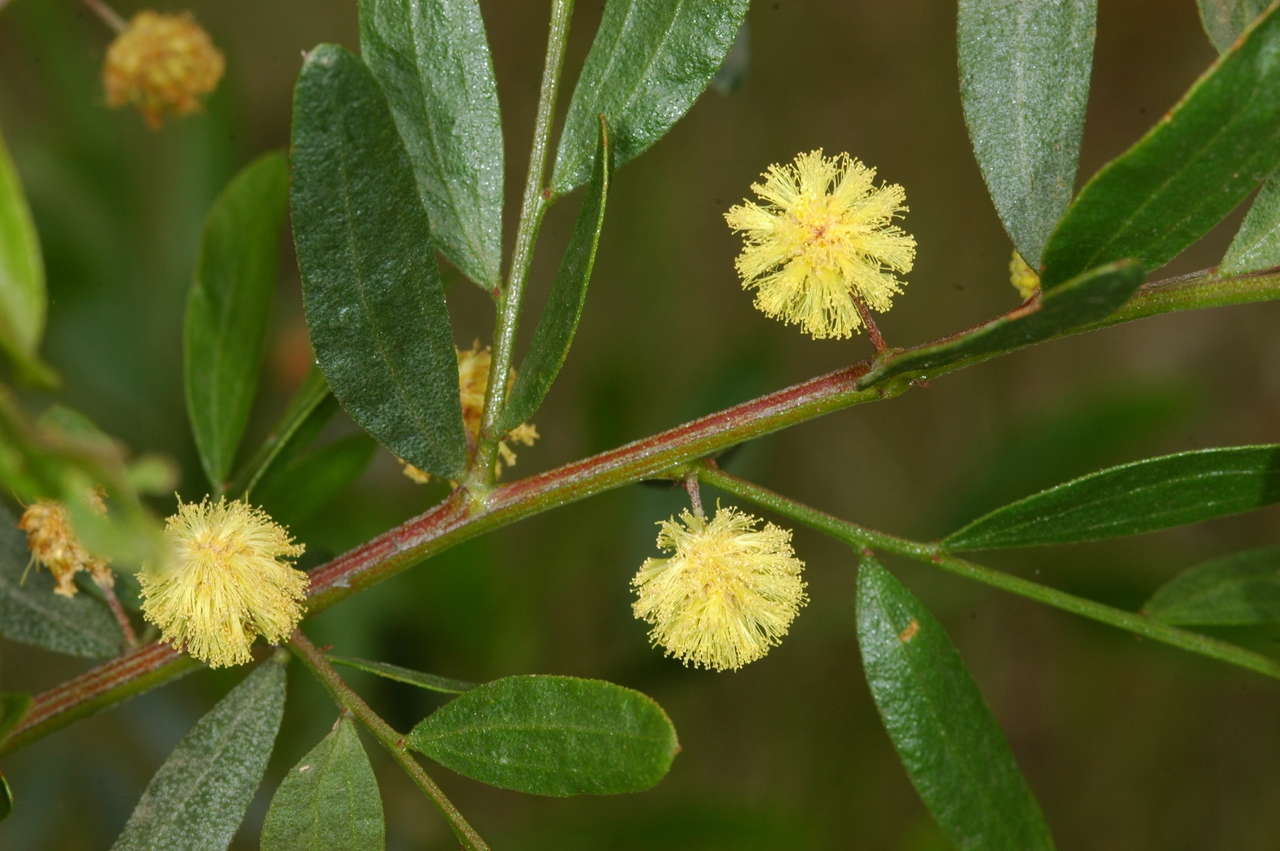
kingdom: Plantae
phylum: Tracheophyta
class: Magnoliopsida
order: Fabales
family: Fabaceae
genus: Acacia
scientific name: Acacia verniciflua
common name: Varnish wattle
